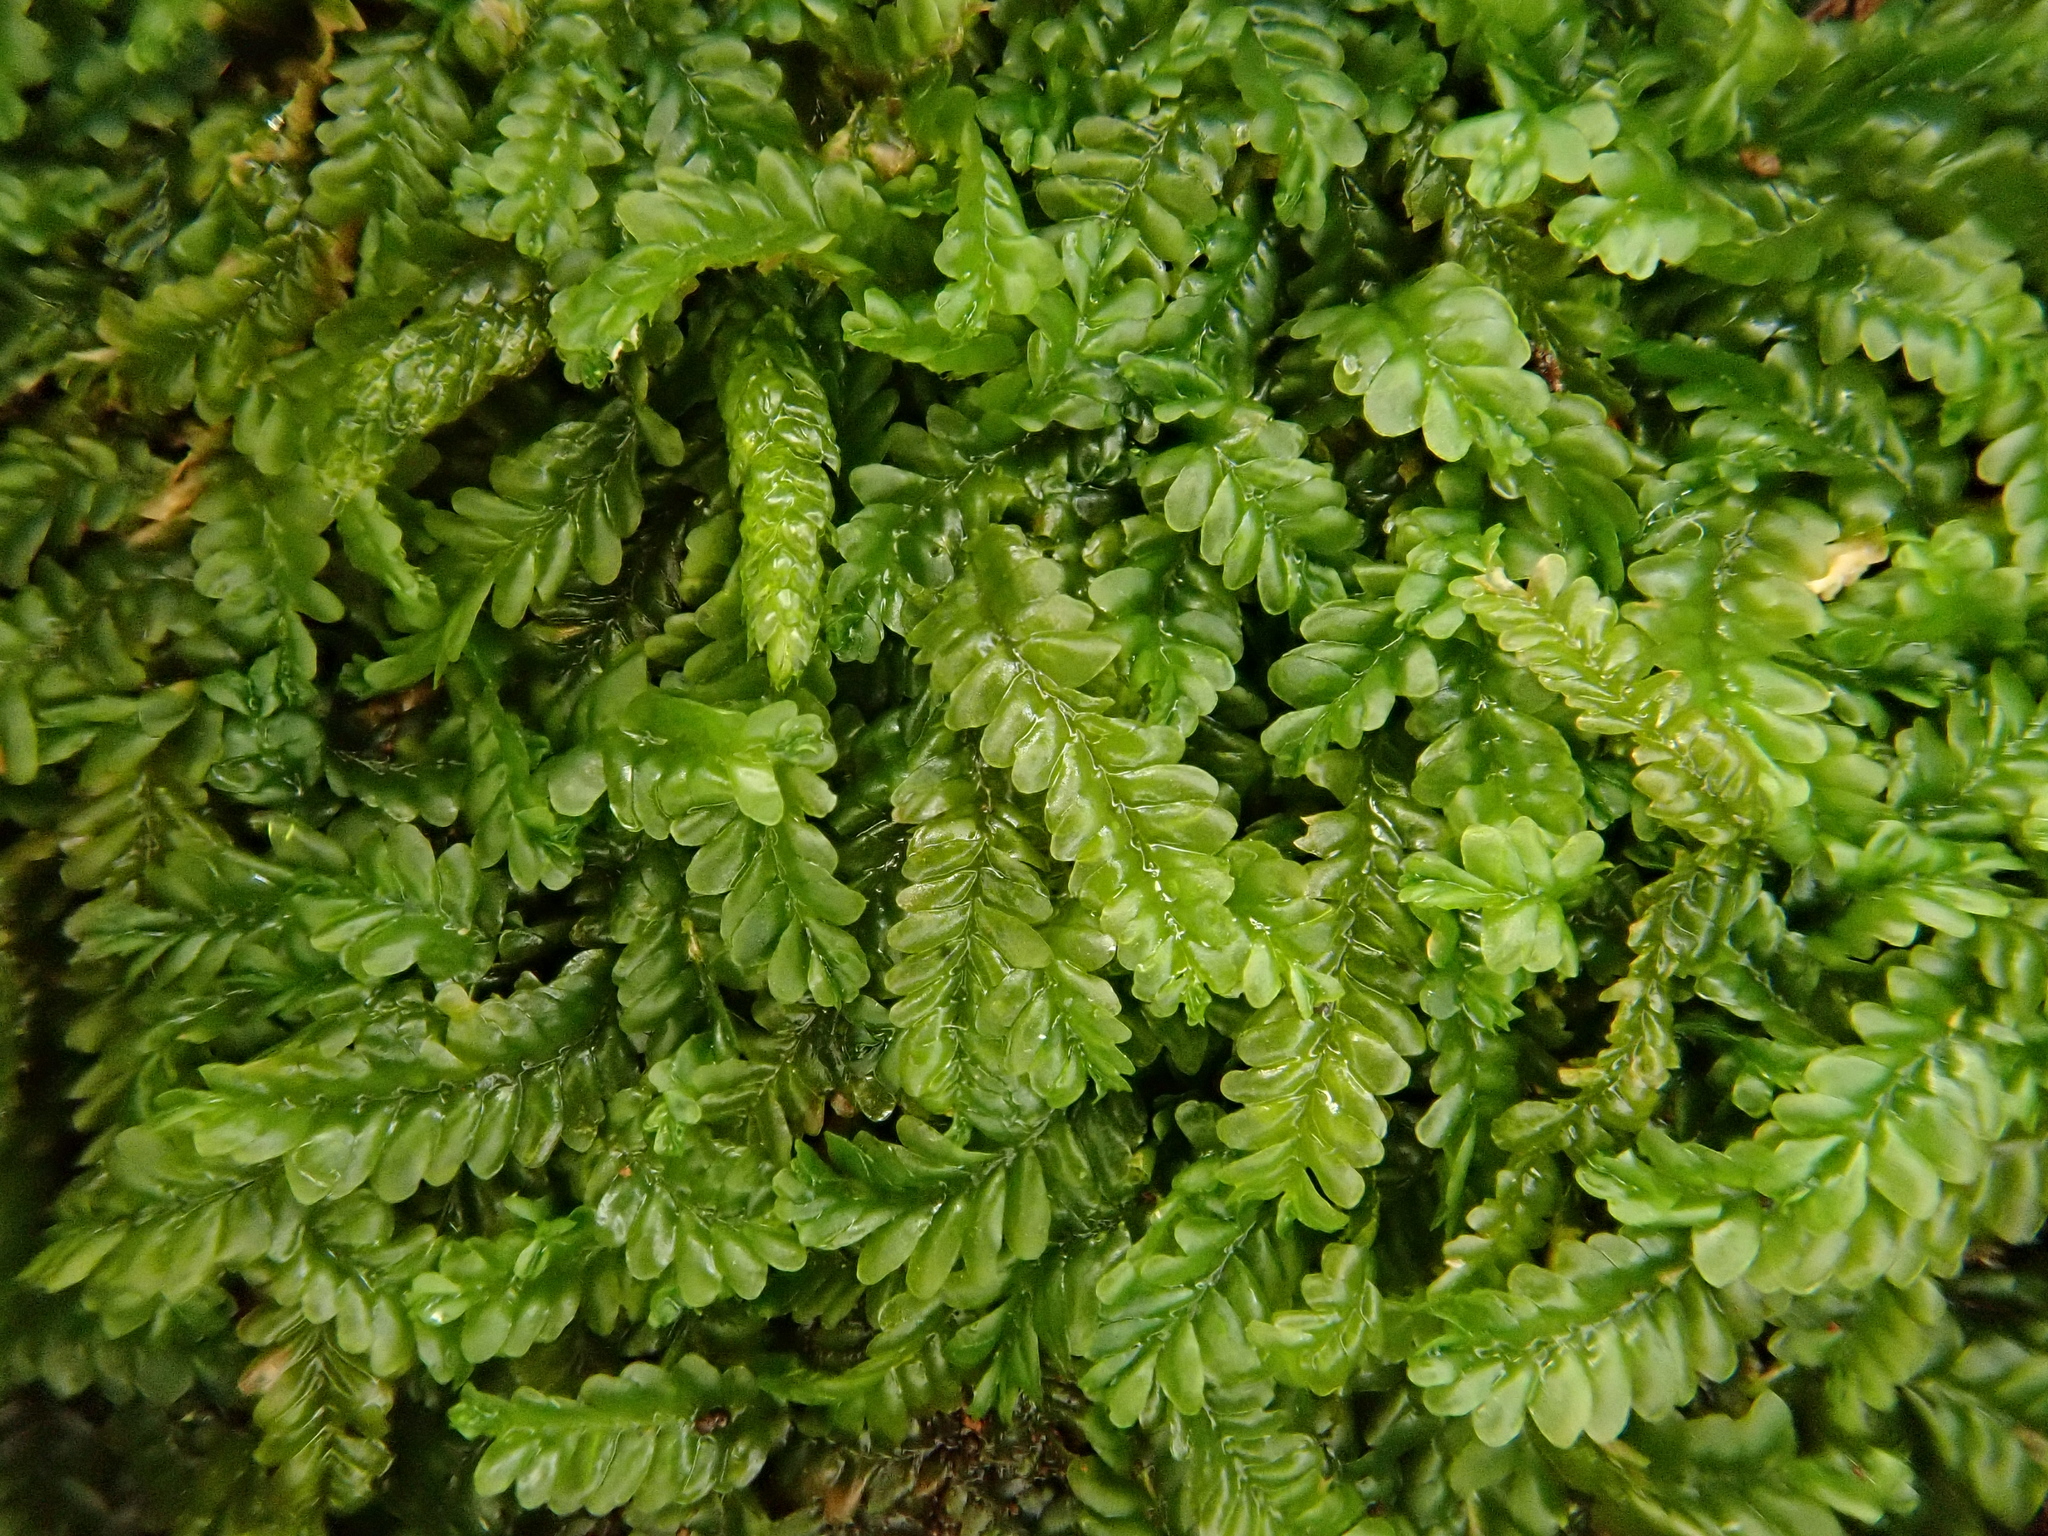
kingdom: Plantae
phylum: Marchantiophyta
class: Jungermanniopsida
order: Jungermanniales
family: Saccogynaceae
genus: Saccogyna
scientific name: Saccogyna viticulosa
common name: Straggling pouchwort
